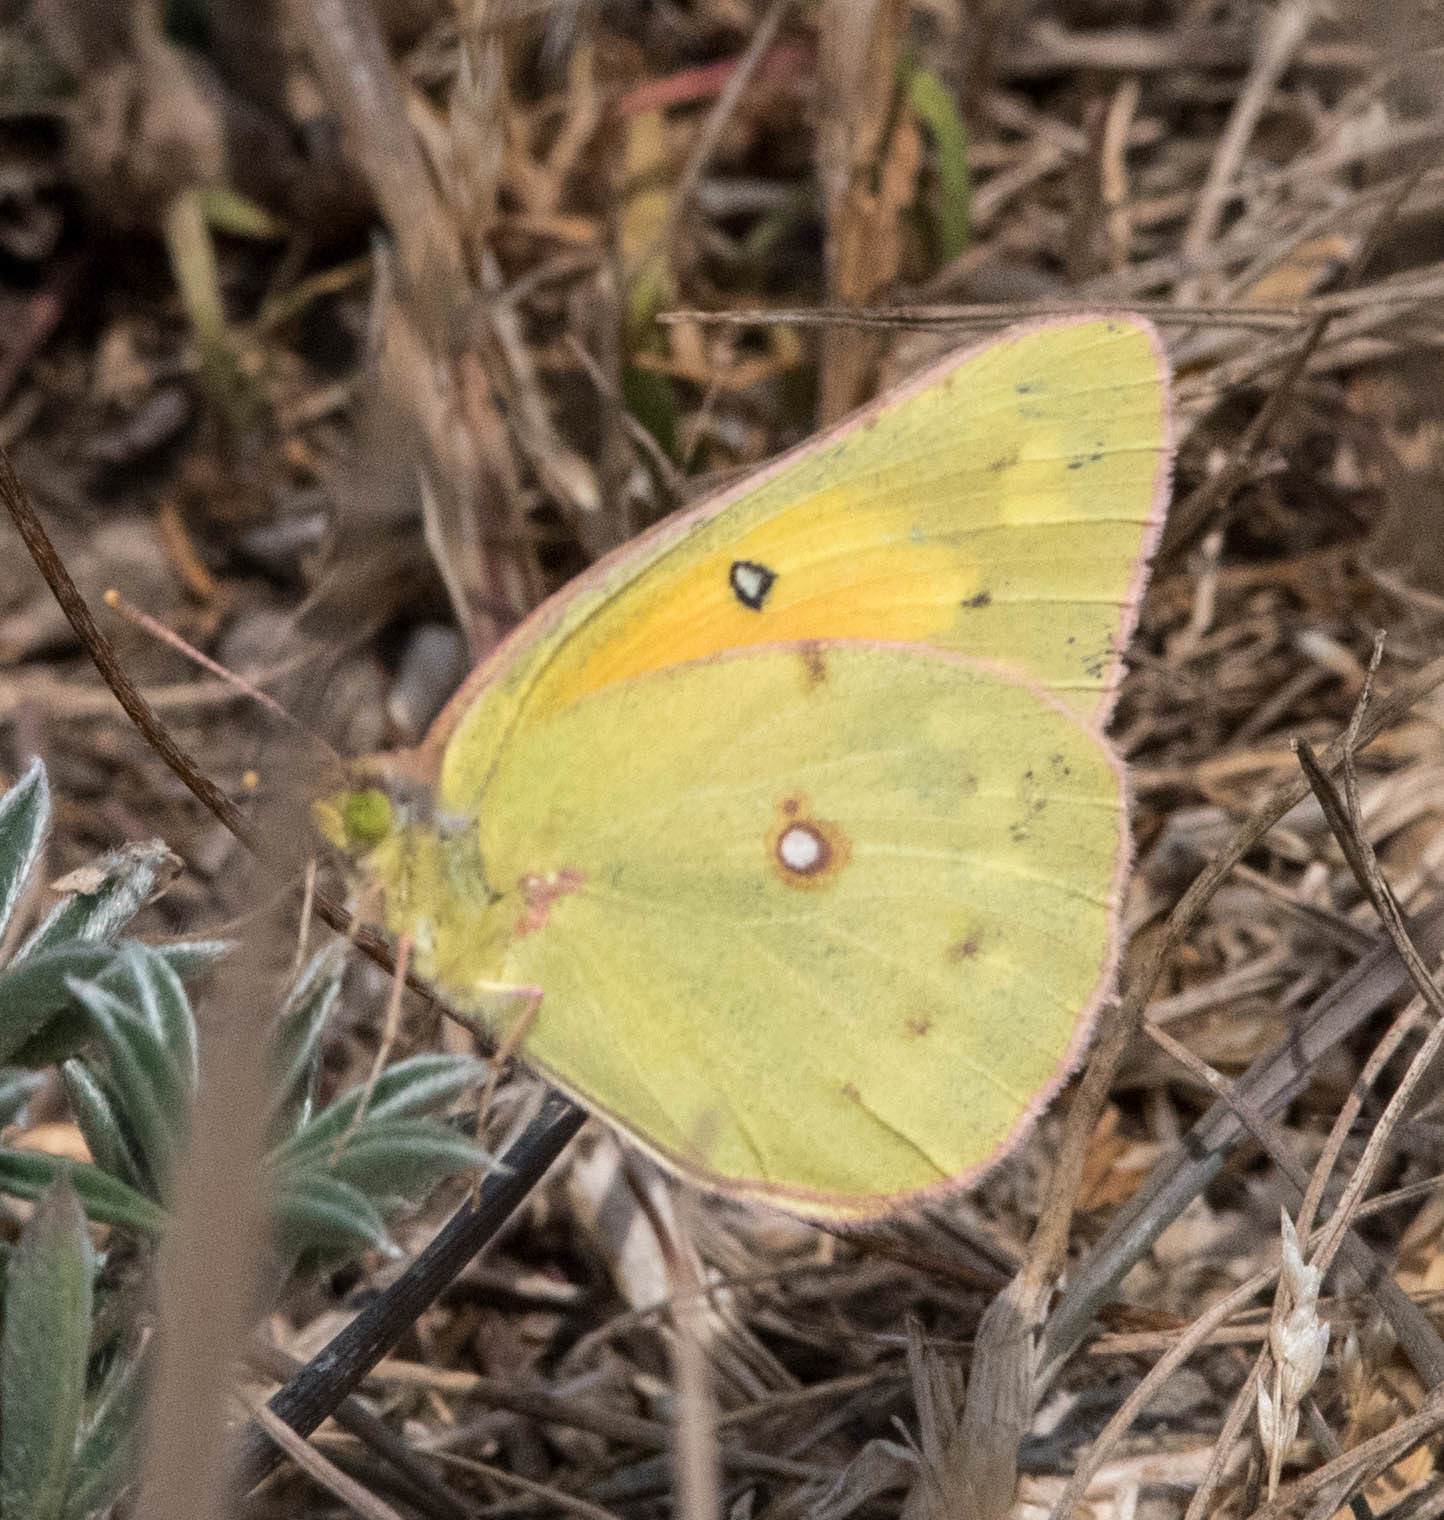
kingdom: Animalia
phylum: Arthropoda
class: Insecta
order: Lepidoptera
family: Pieridae
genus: Colias
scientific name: Colias eurytheme
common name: Alfalfa butterfly
